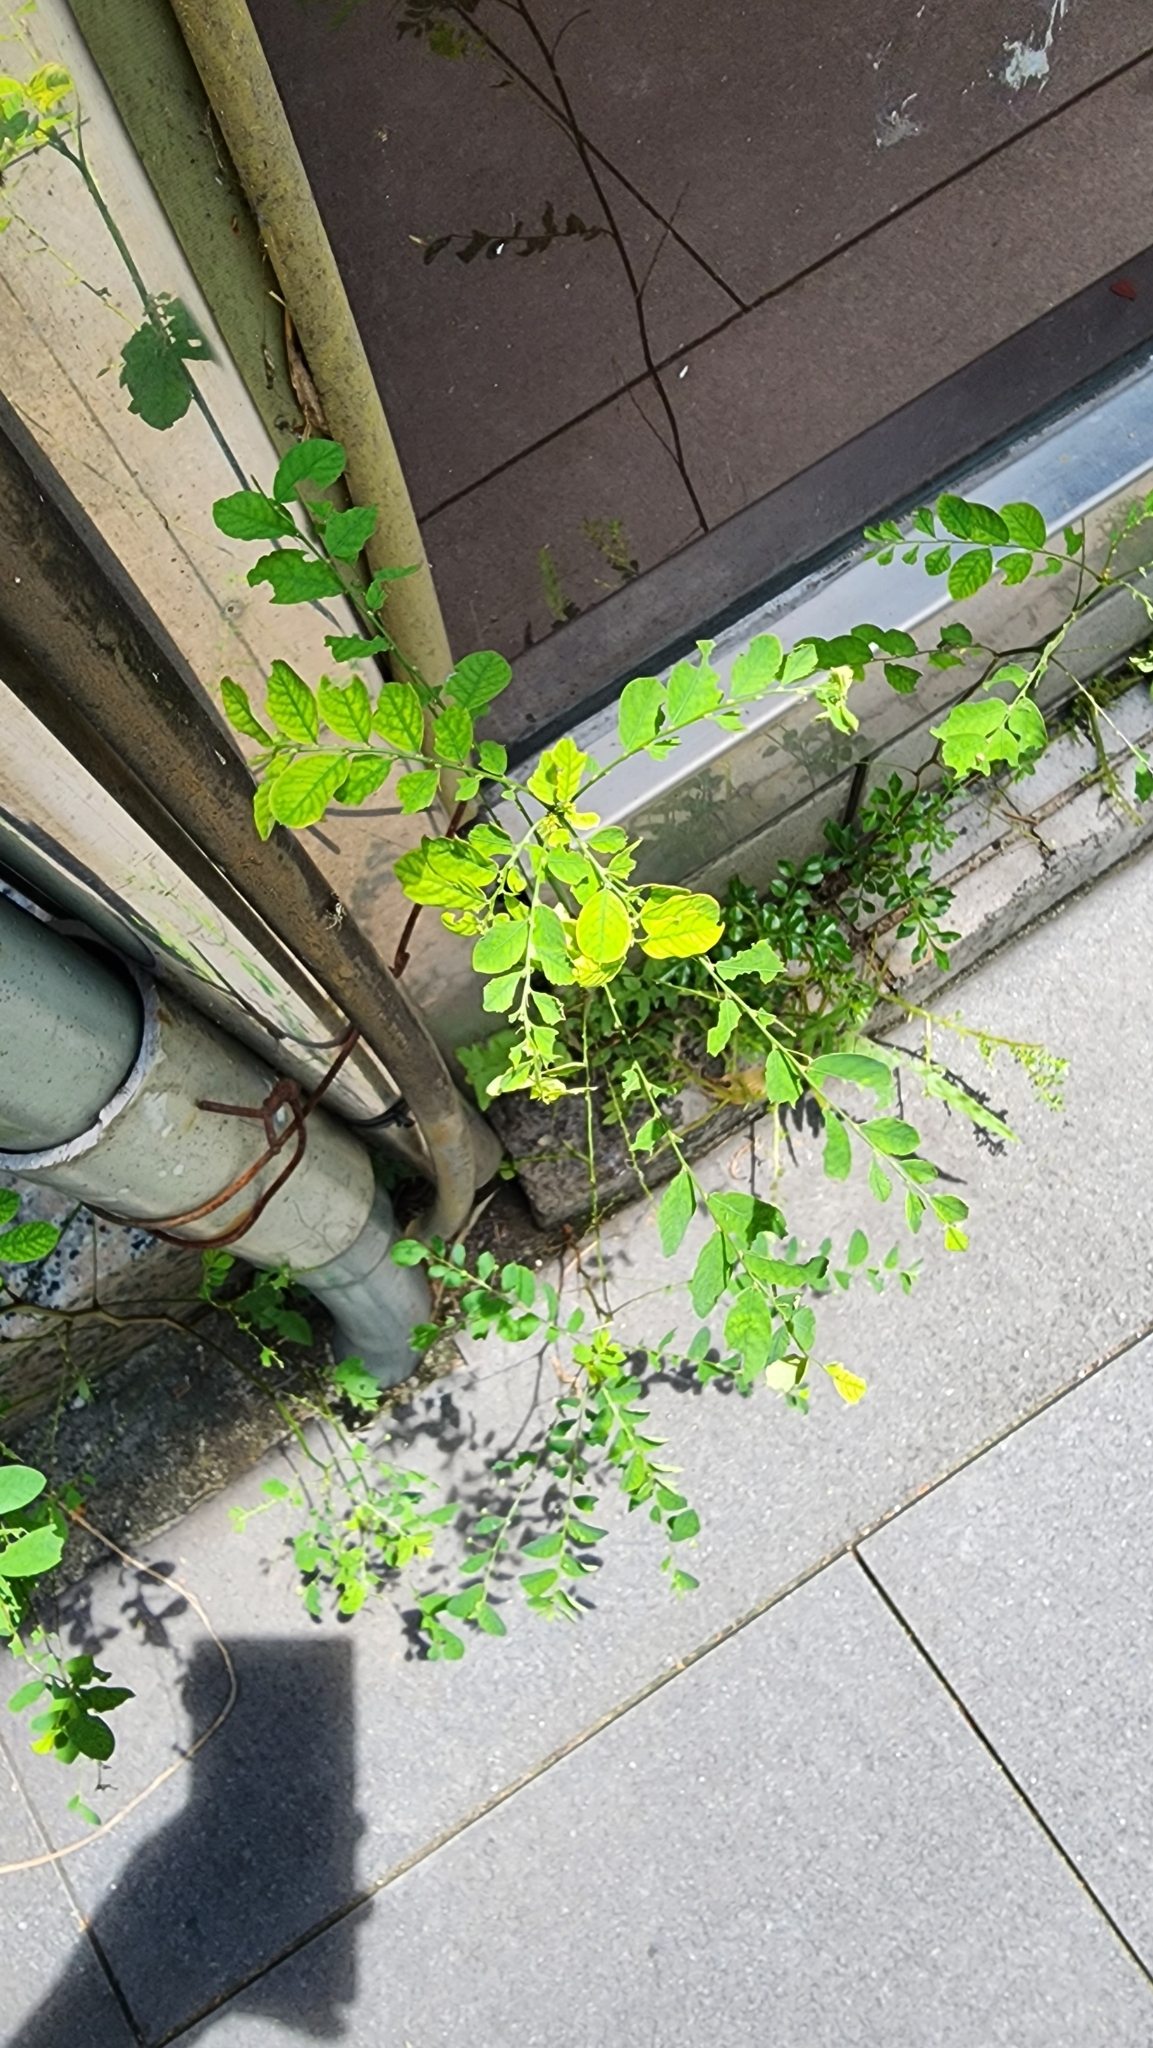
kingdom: Plantae
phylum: Tracheophyta
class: Magnoliopsida
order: Malpighiales
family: Phyllanthaceae
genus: Phyllanthus
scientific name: Phyllanthus tenellus
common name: Mascarene island leaf-flower
